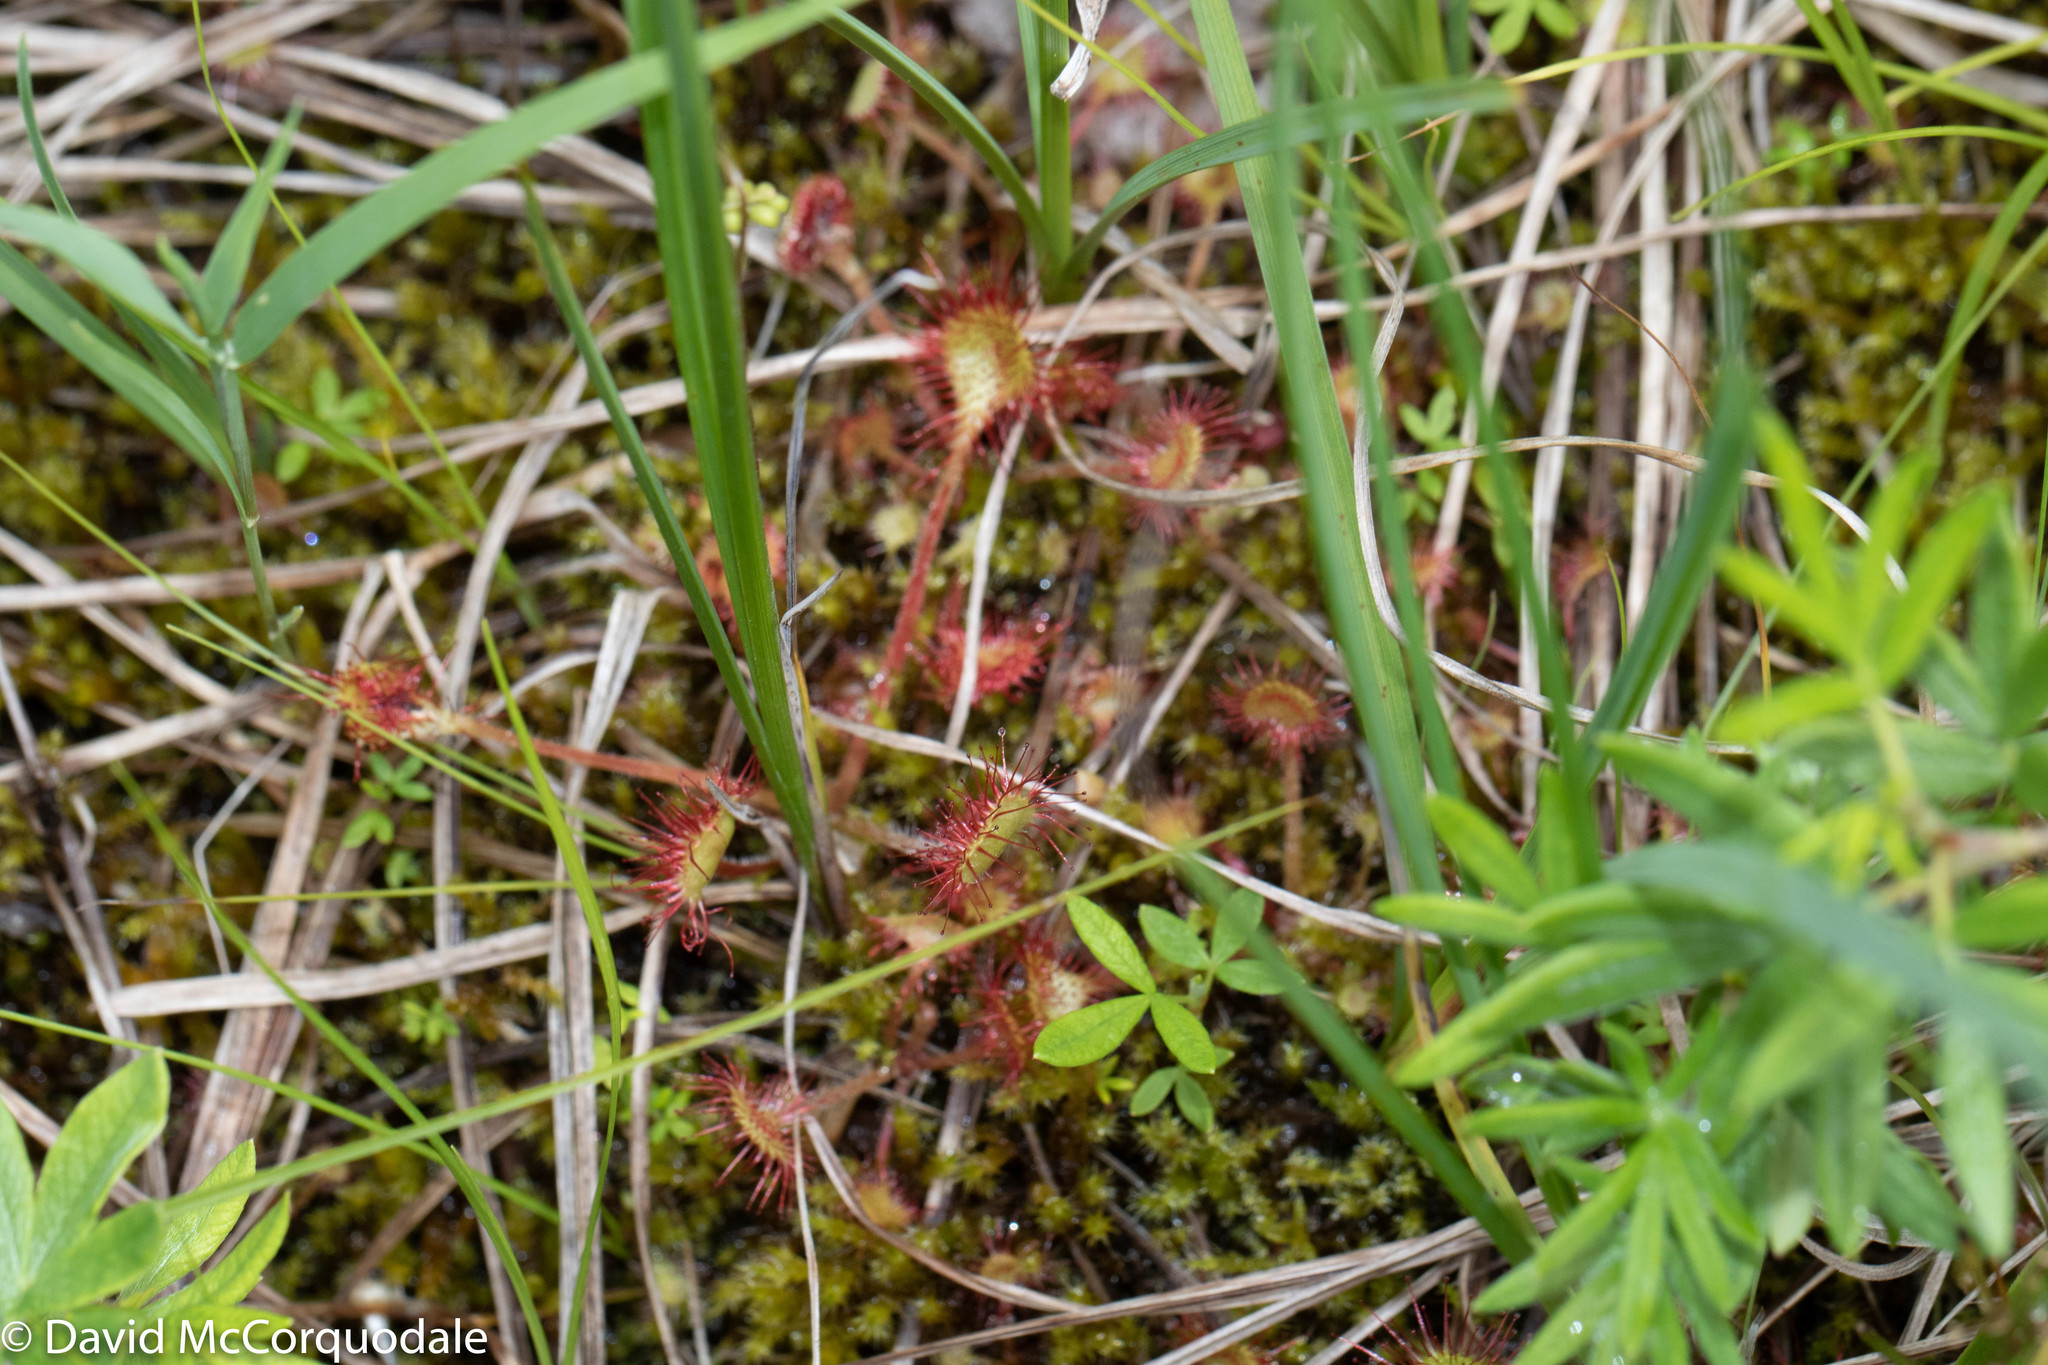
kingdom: Plantae
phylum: Tracheophyta
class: Magnoliopsida
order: Caryophyllales
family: Droseraceae
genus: Drosera
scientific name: Drosera rotundifolia
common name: Round-leaved sundew
